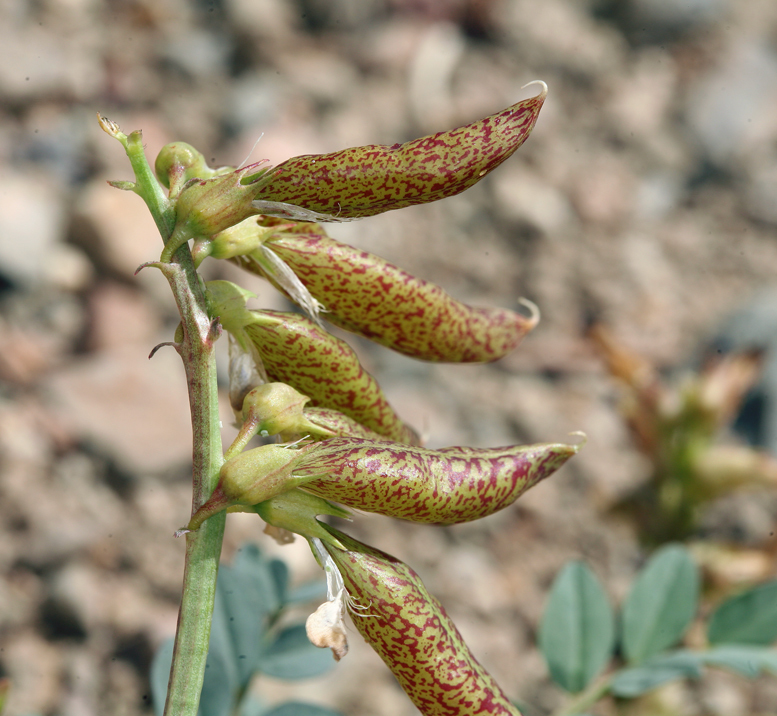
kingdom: Plantae
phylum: Tracheophyta
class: Magnoliopsida
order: Fabales
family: Fabaceae
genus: Astragalus
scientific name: Astragalus oophorus
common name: Egg milkvetch
